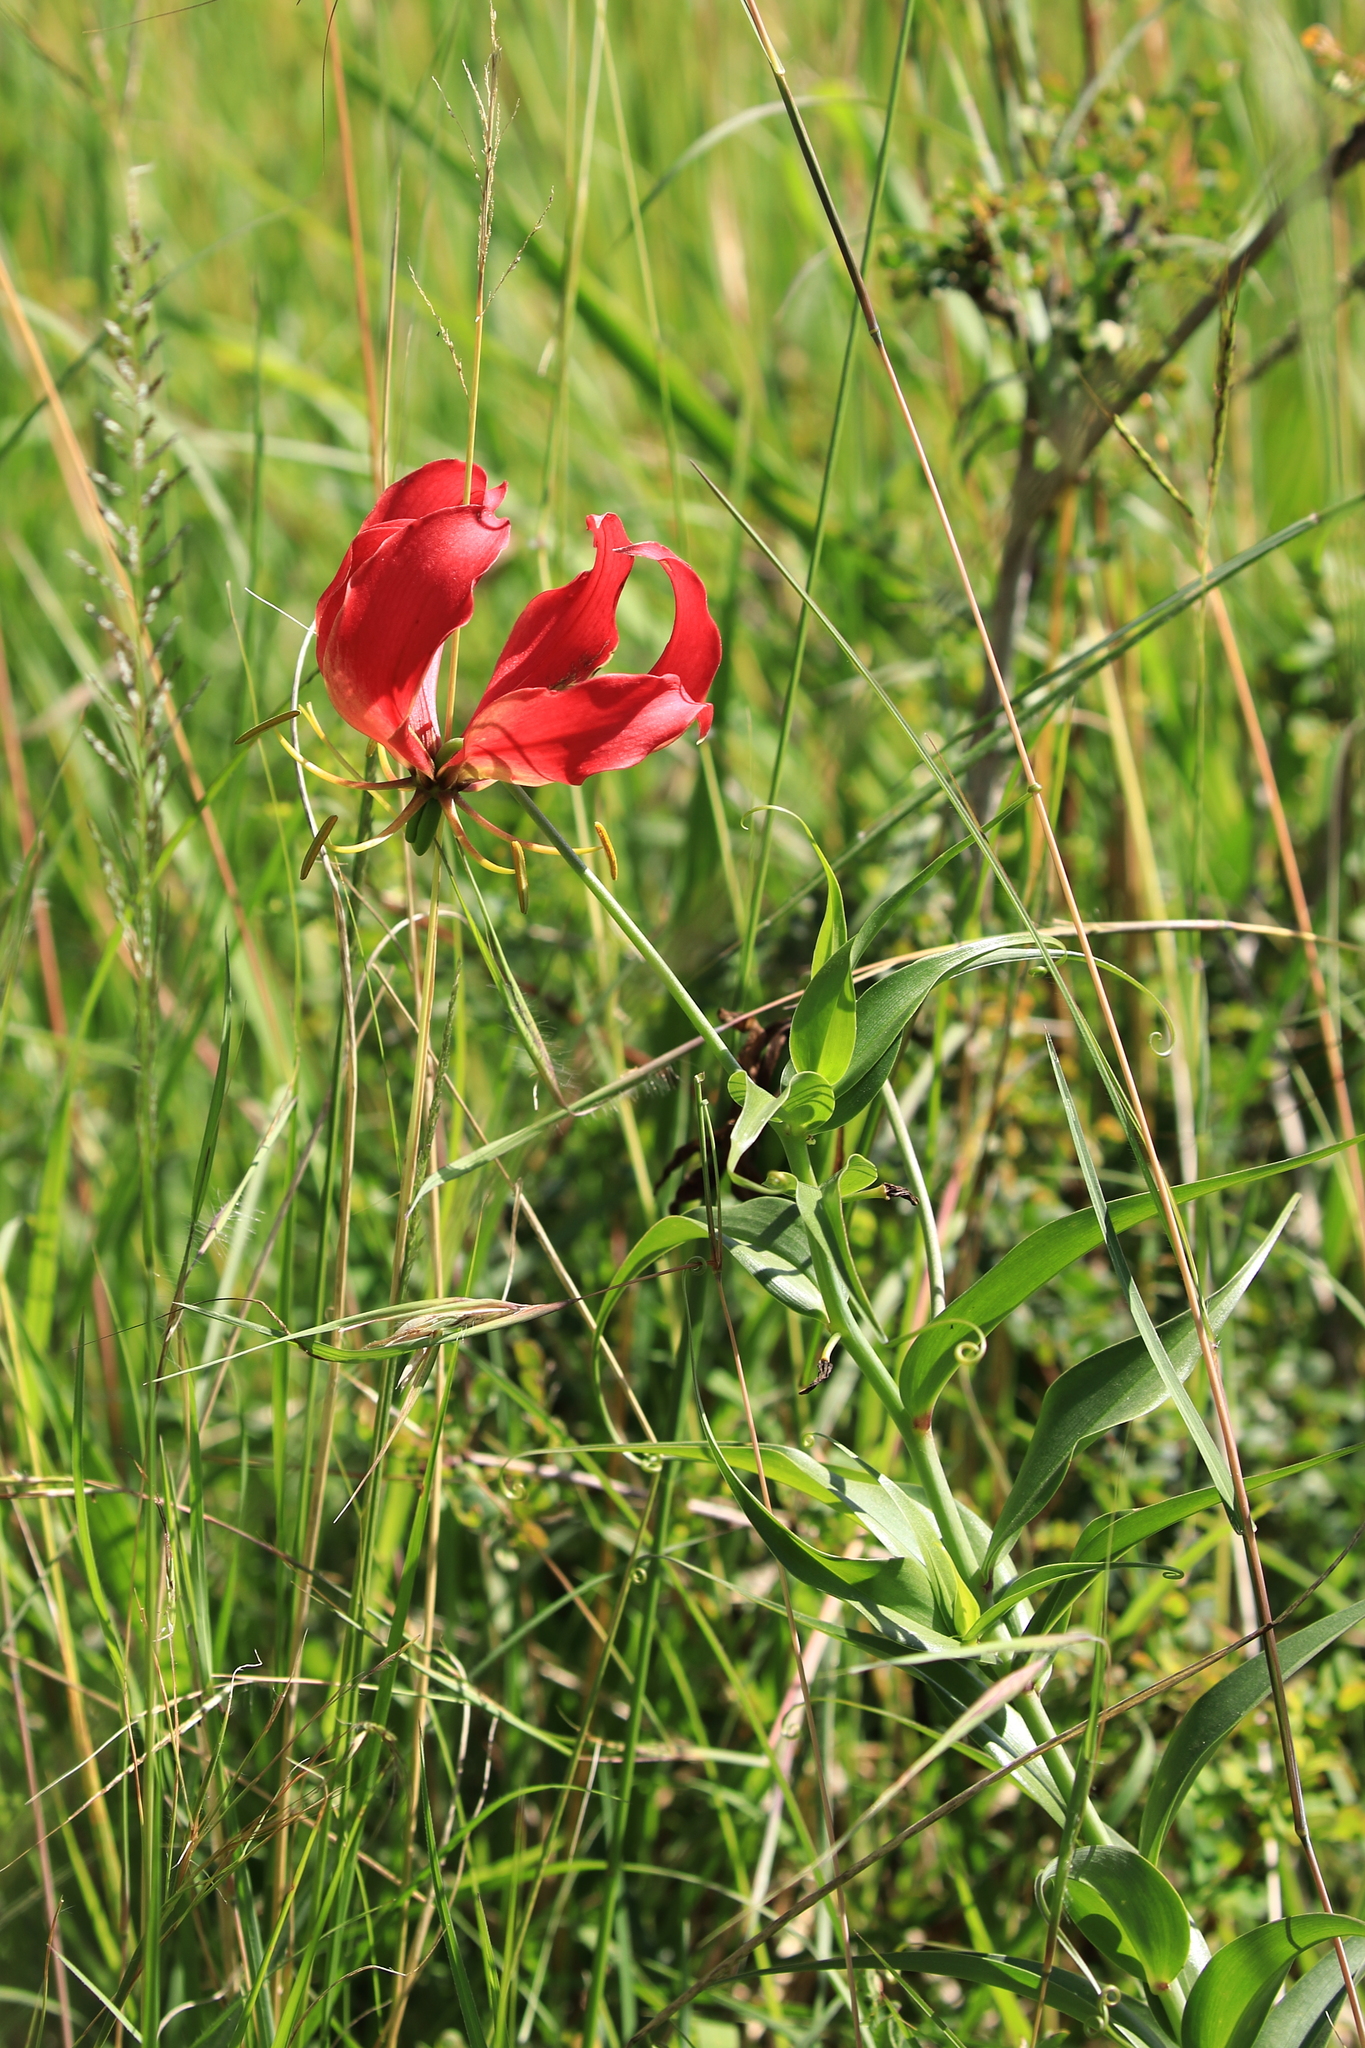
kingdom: Plantae
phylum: Tracheophyta
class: Liliopsida
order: Liliales
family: Colchicaceae
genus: Gloriosa
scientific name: Gloriosa superba
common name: Flame lily
